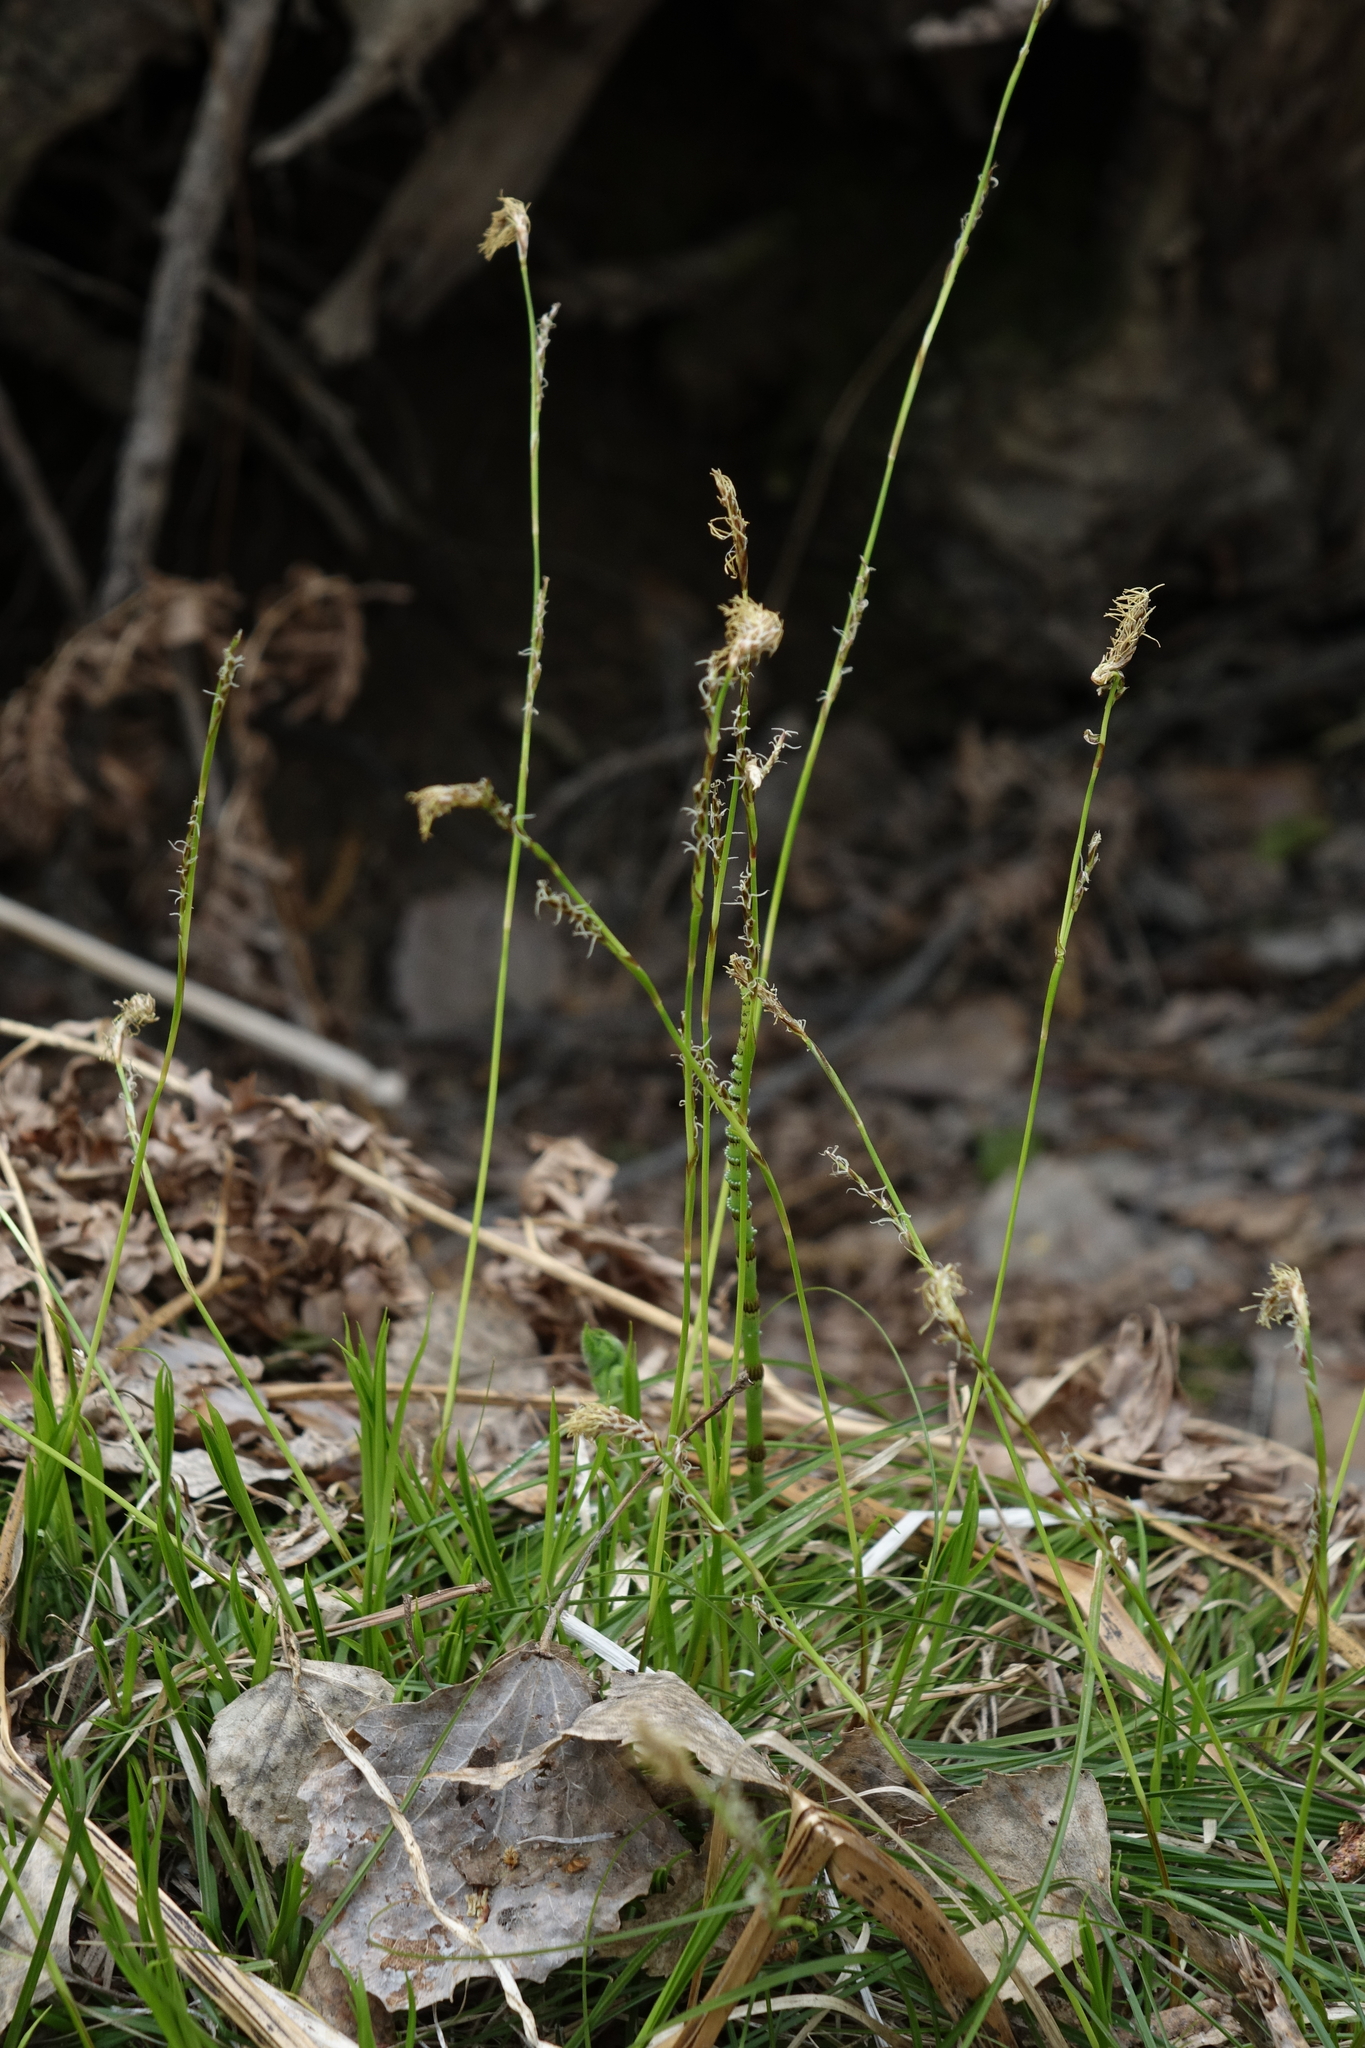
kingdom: Plantae
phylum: Tracheophyta
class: Liliopsida
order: Poales
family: Cyperaceae
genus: Carex
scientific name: Carex pediformis
